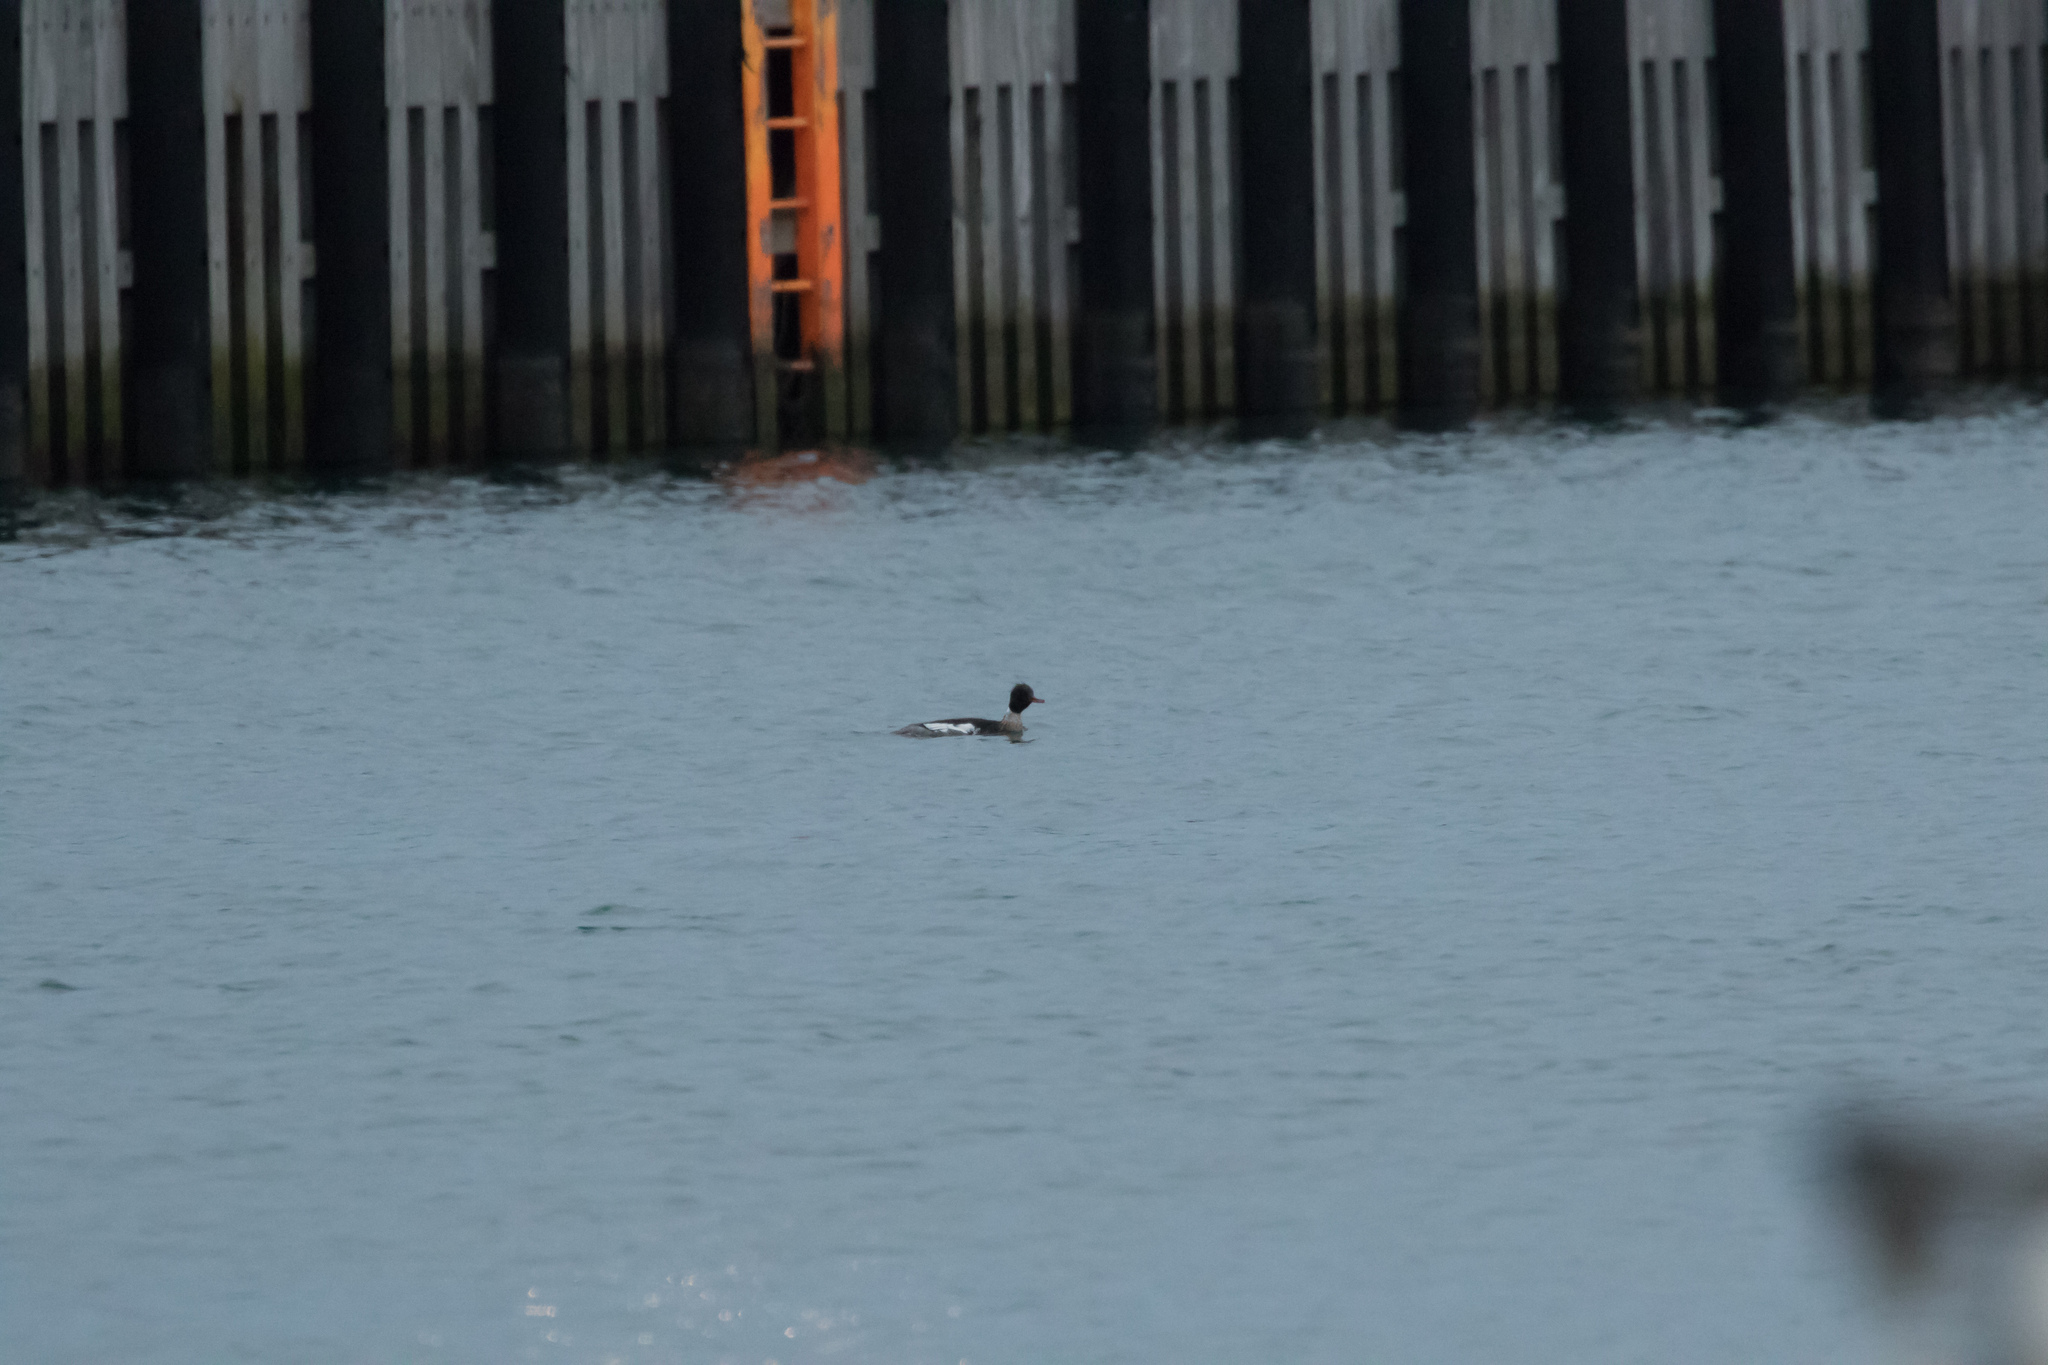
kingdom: Animalia
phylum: Chordata
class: Aves
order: Anseriformes
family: Anatidae
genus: Mergus
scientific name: Mergus serrator
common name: Red-breasted merganser
